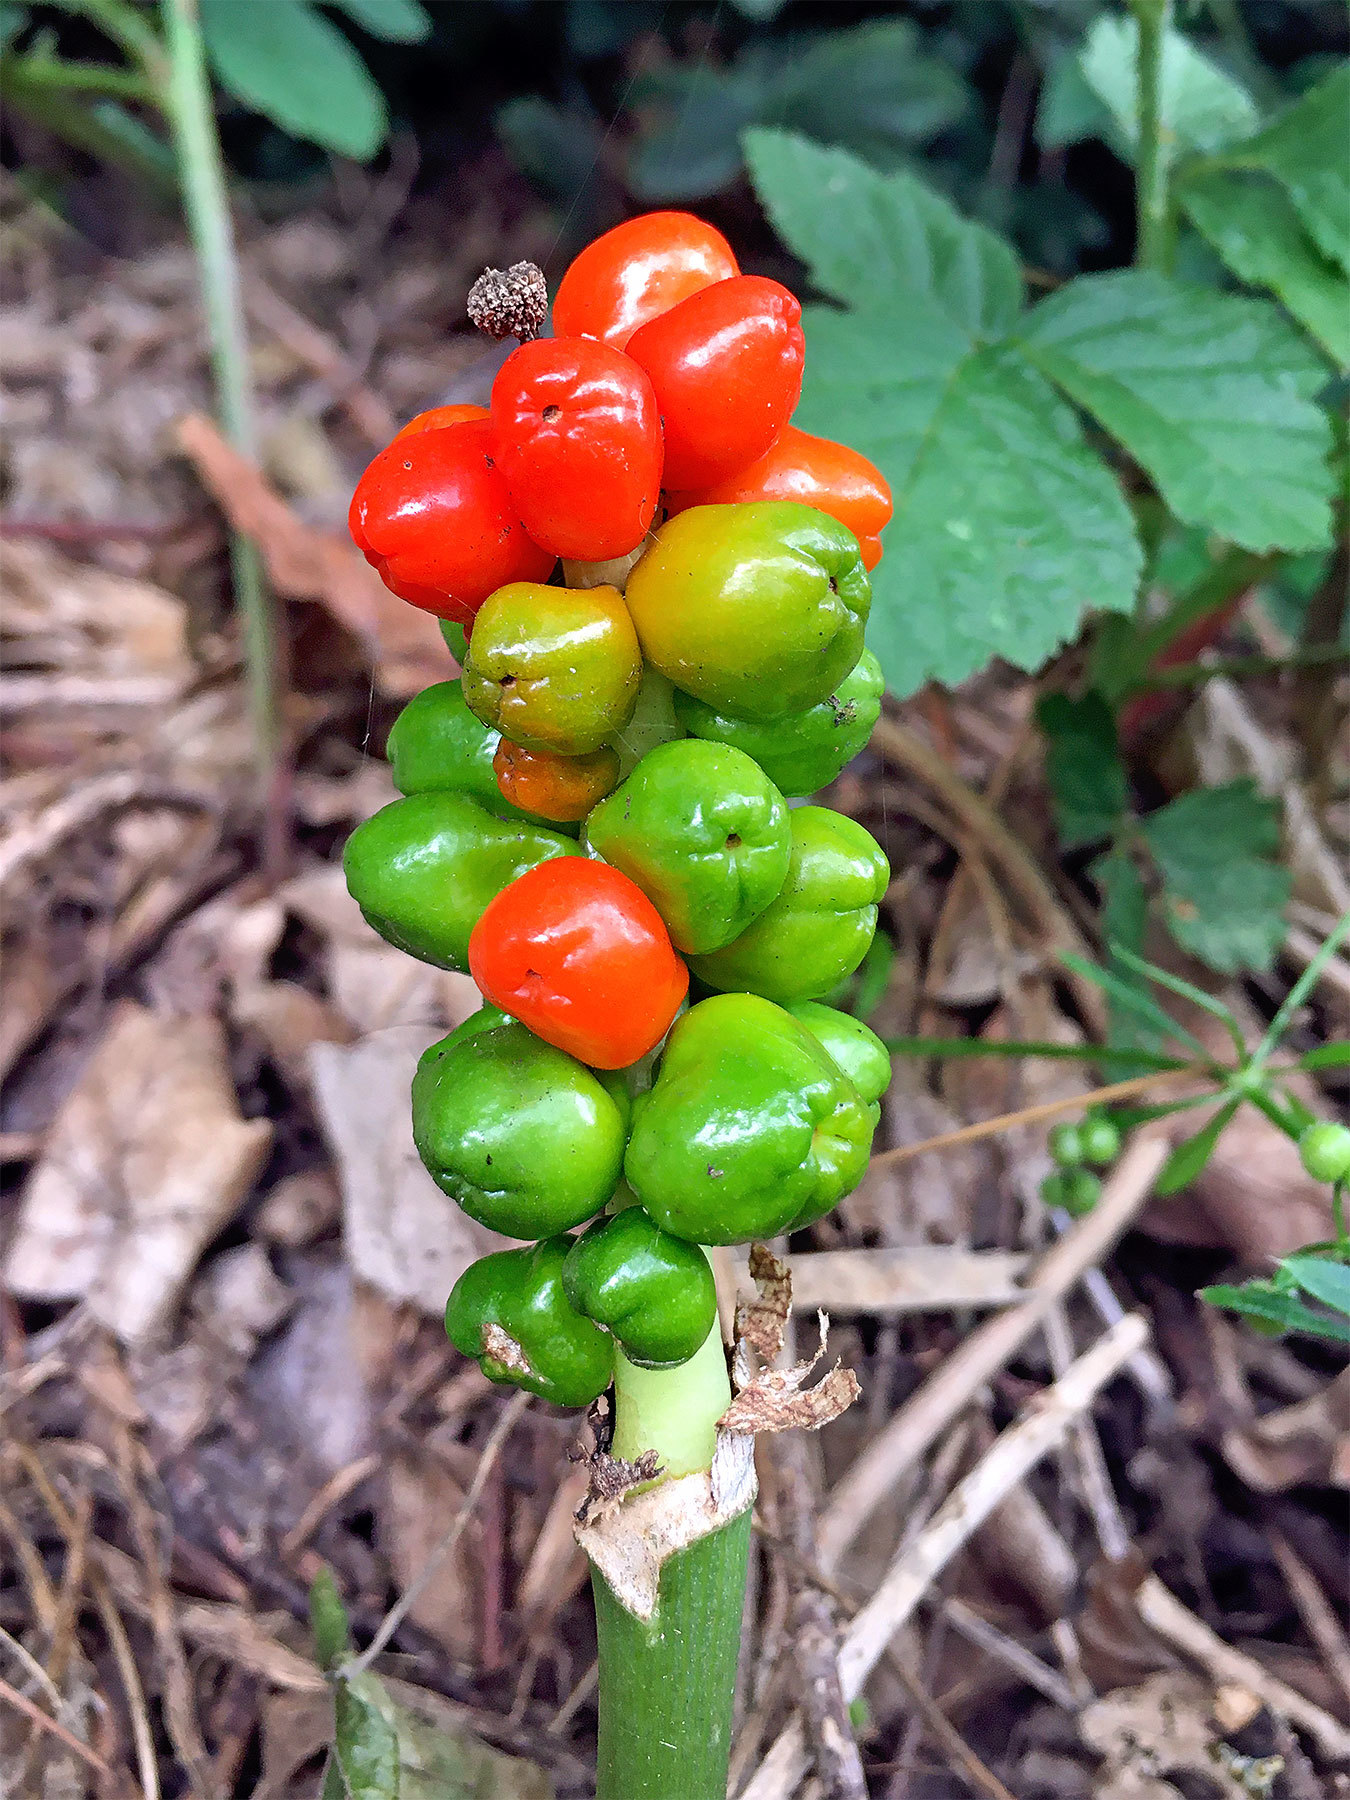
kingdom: Plantae
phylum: Tracheophyta
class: Liliopsida
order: Alismatales
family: Araceae
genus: Arum
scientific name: Arum maculatum
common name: Lords-and-ladies
